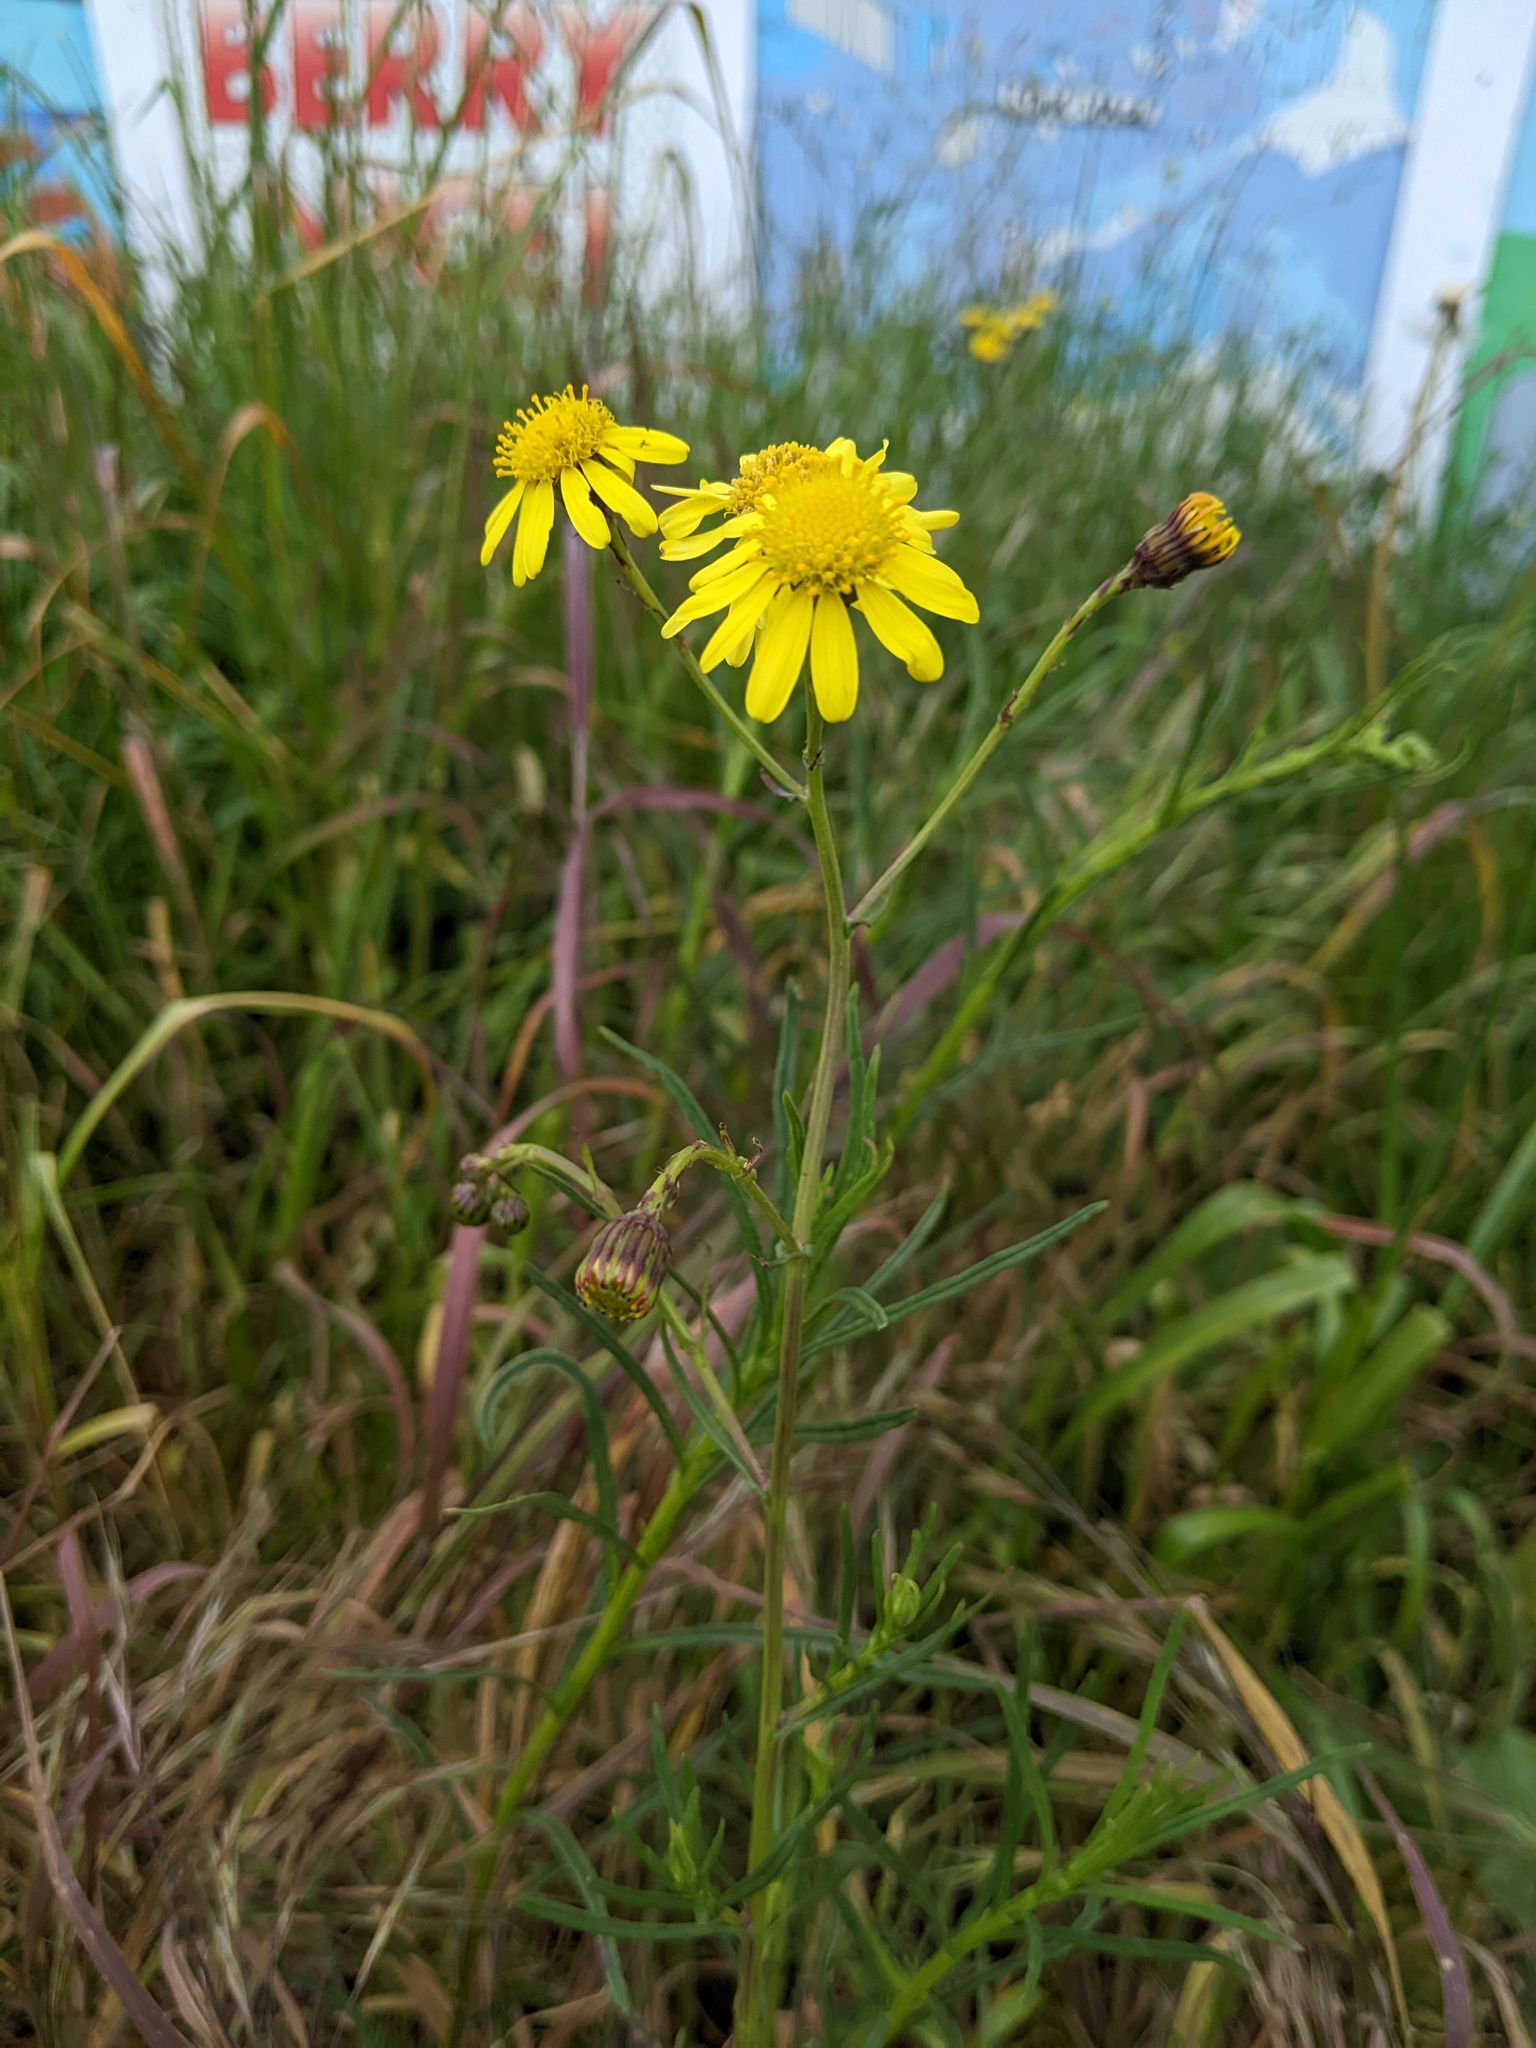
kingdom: Plantae
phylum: Tracheophyta
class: Magnoliopsida
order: Asterales
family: Asteraceae
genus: Senecio
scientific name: Senecio inaequidens
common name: Narrow-leaved ragwort
